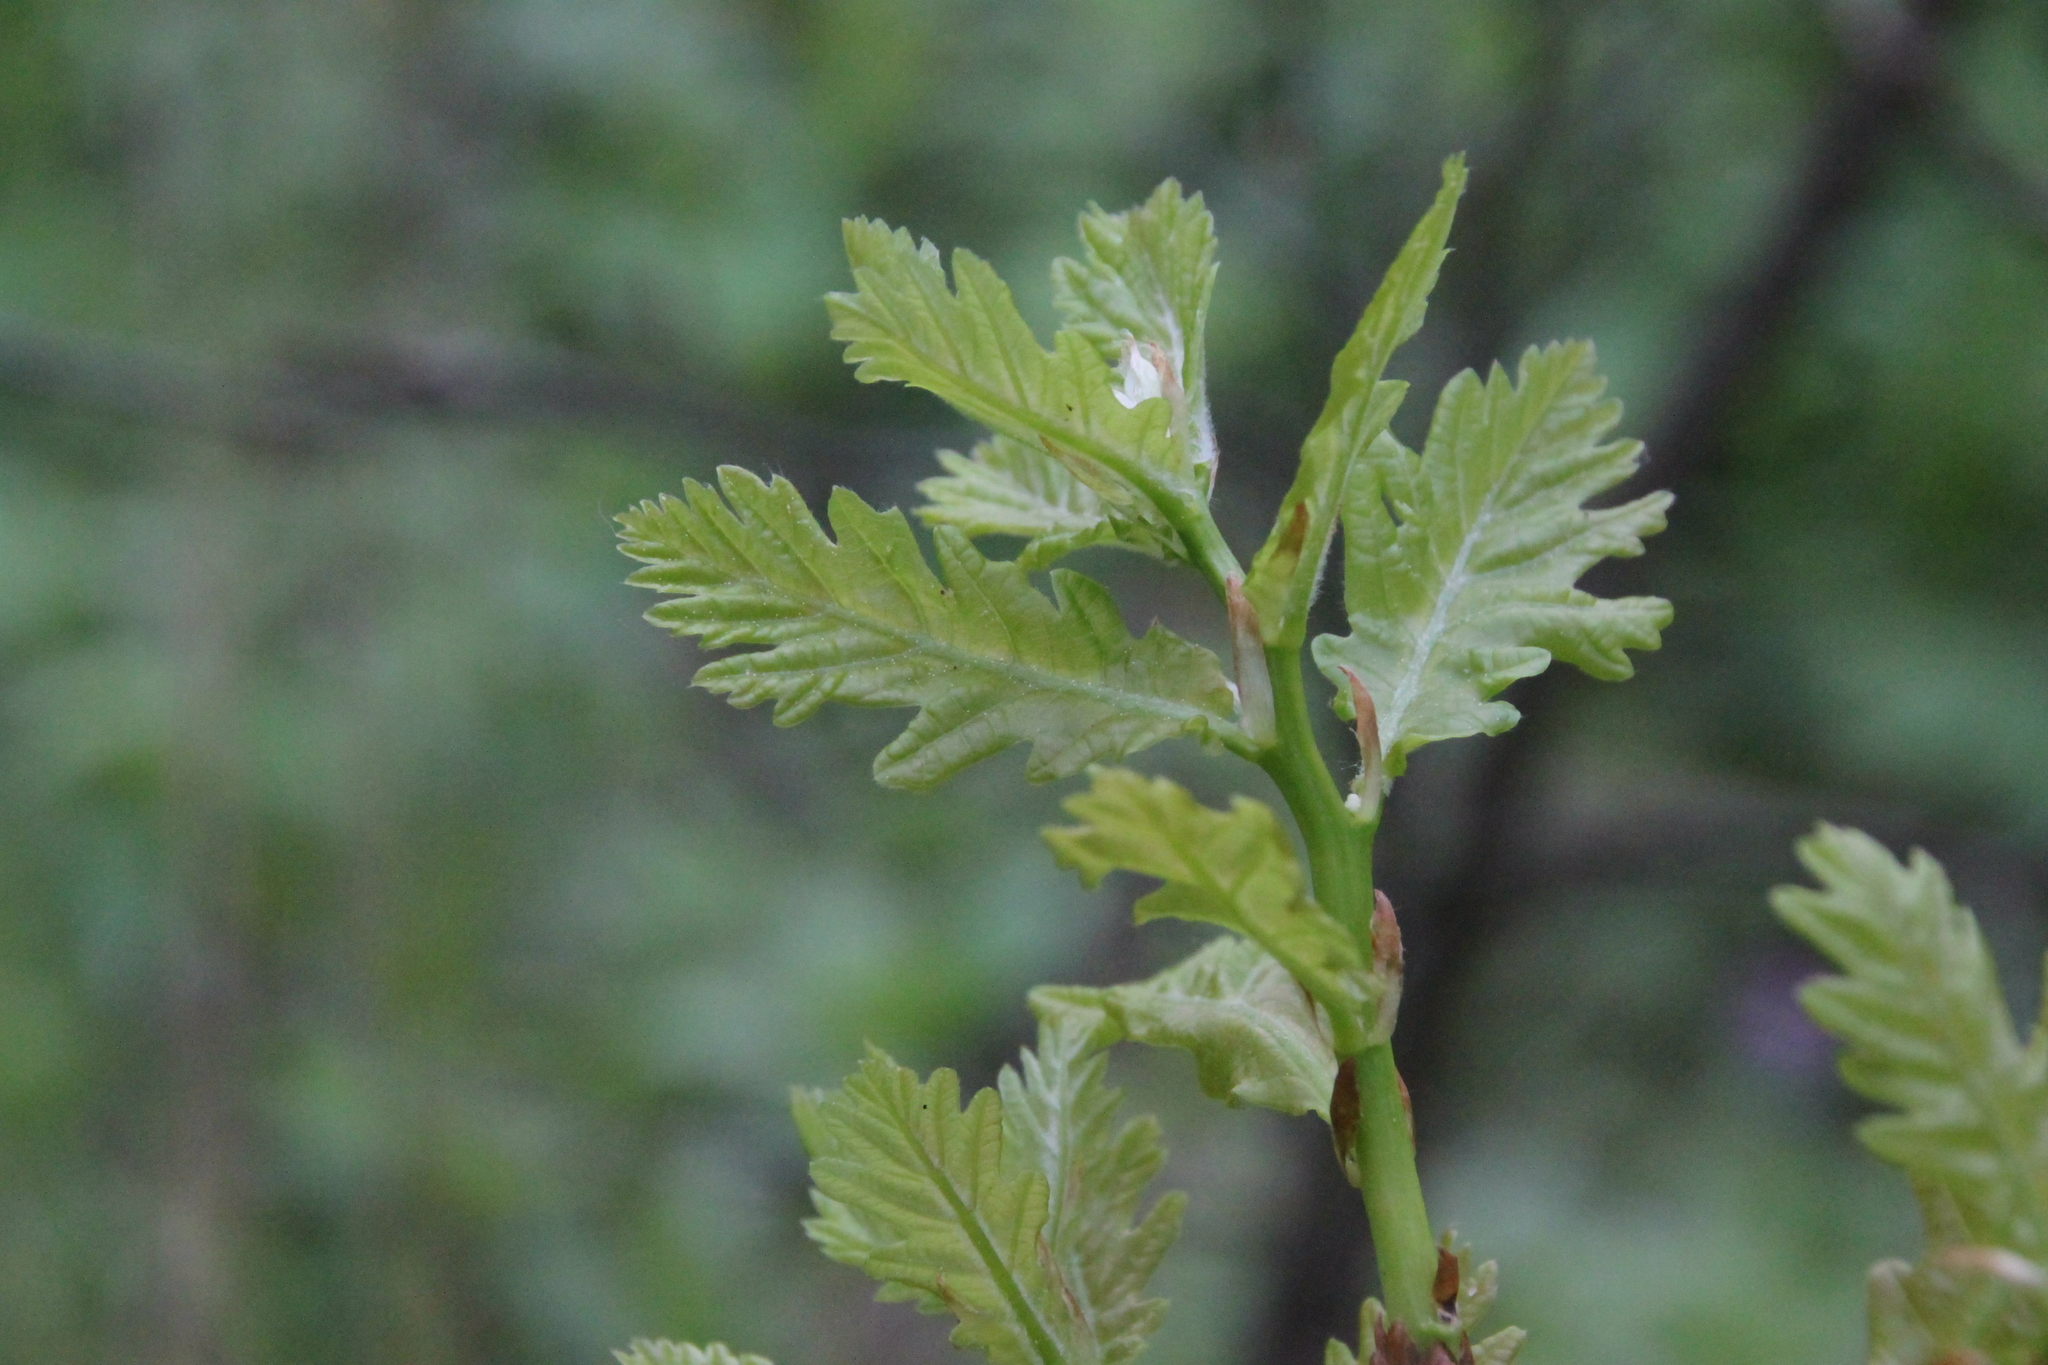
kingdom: Plantae
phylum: Tracheophyta
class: Magnoliopsida
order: Fagales
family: Fagaceae
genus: Quercus
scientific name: Quercus robur
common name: Pedunculate oak
